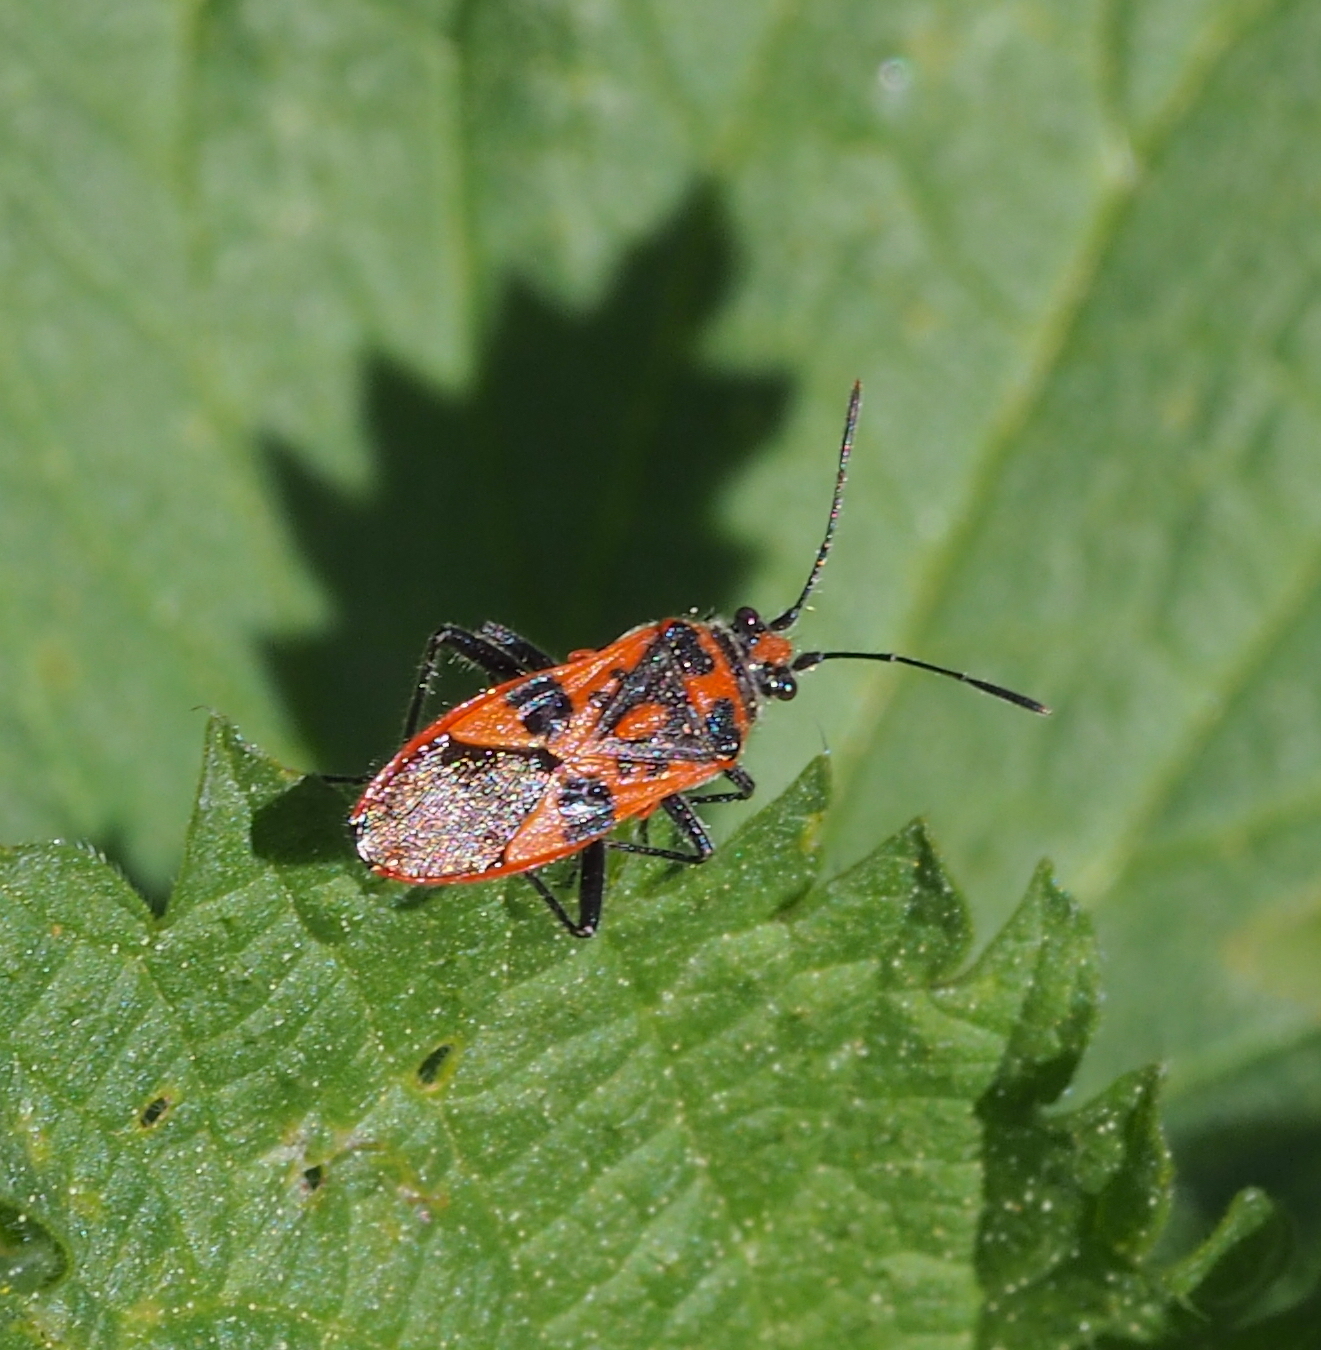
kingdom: Animalia
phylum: Arthropoda
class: Insecta
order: Hemiptera
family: Rhopalidae
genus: Corizus
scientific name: Corizus hyoscyami
